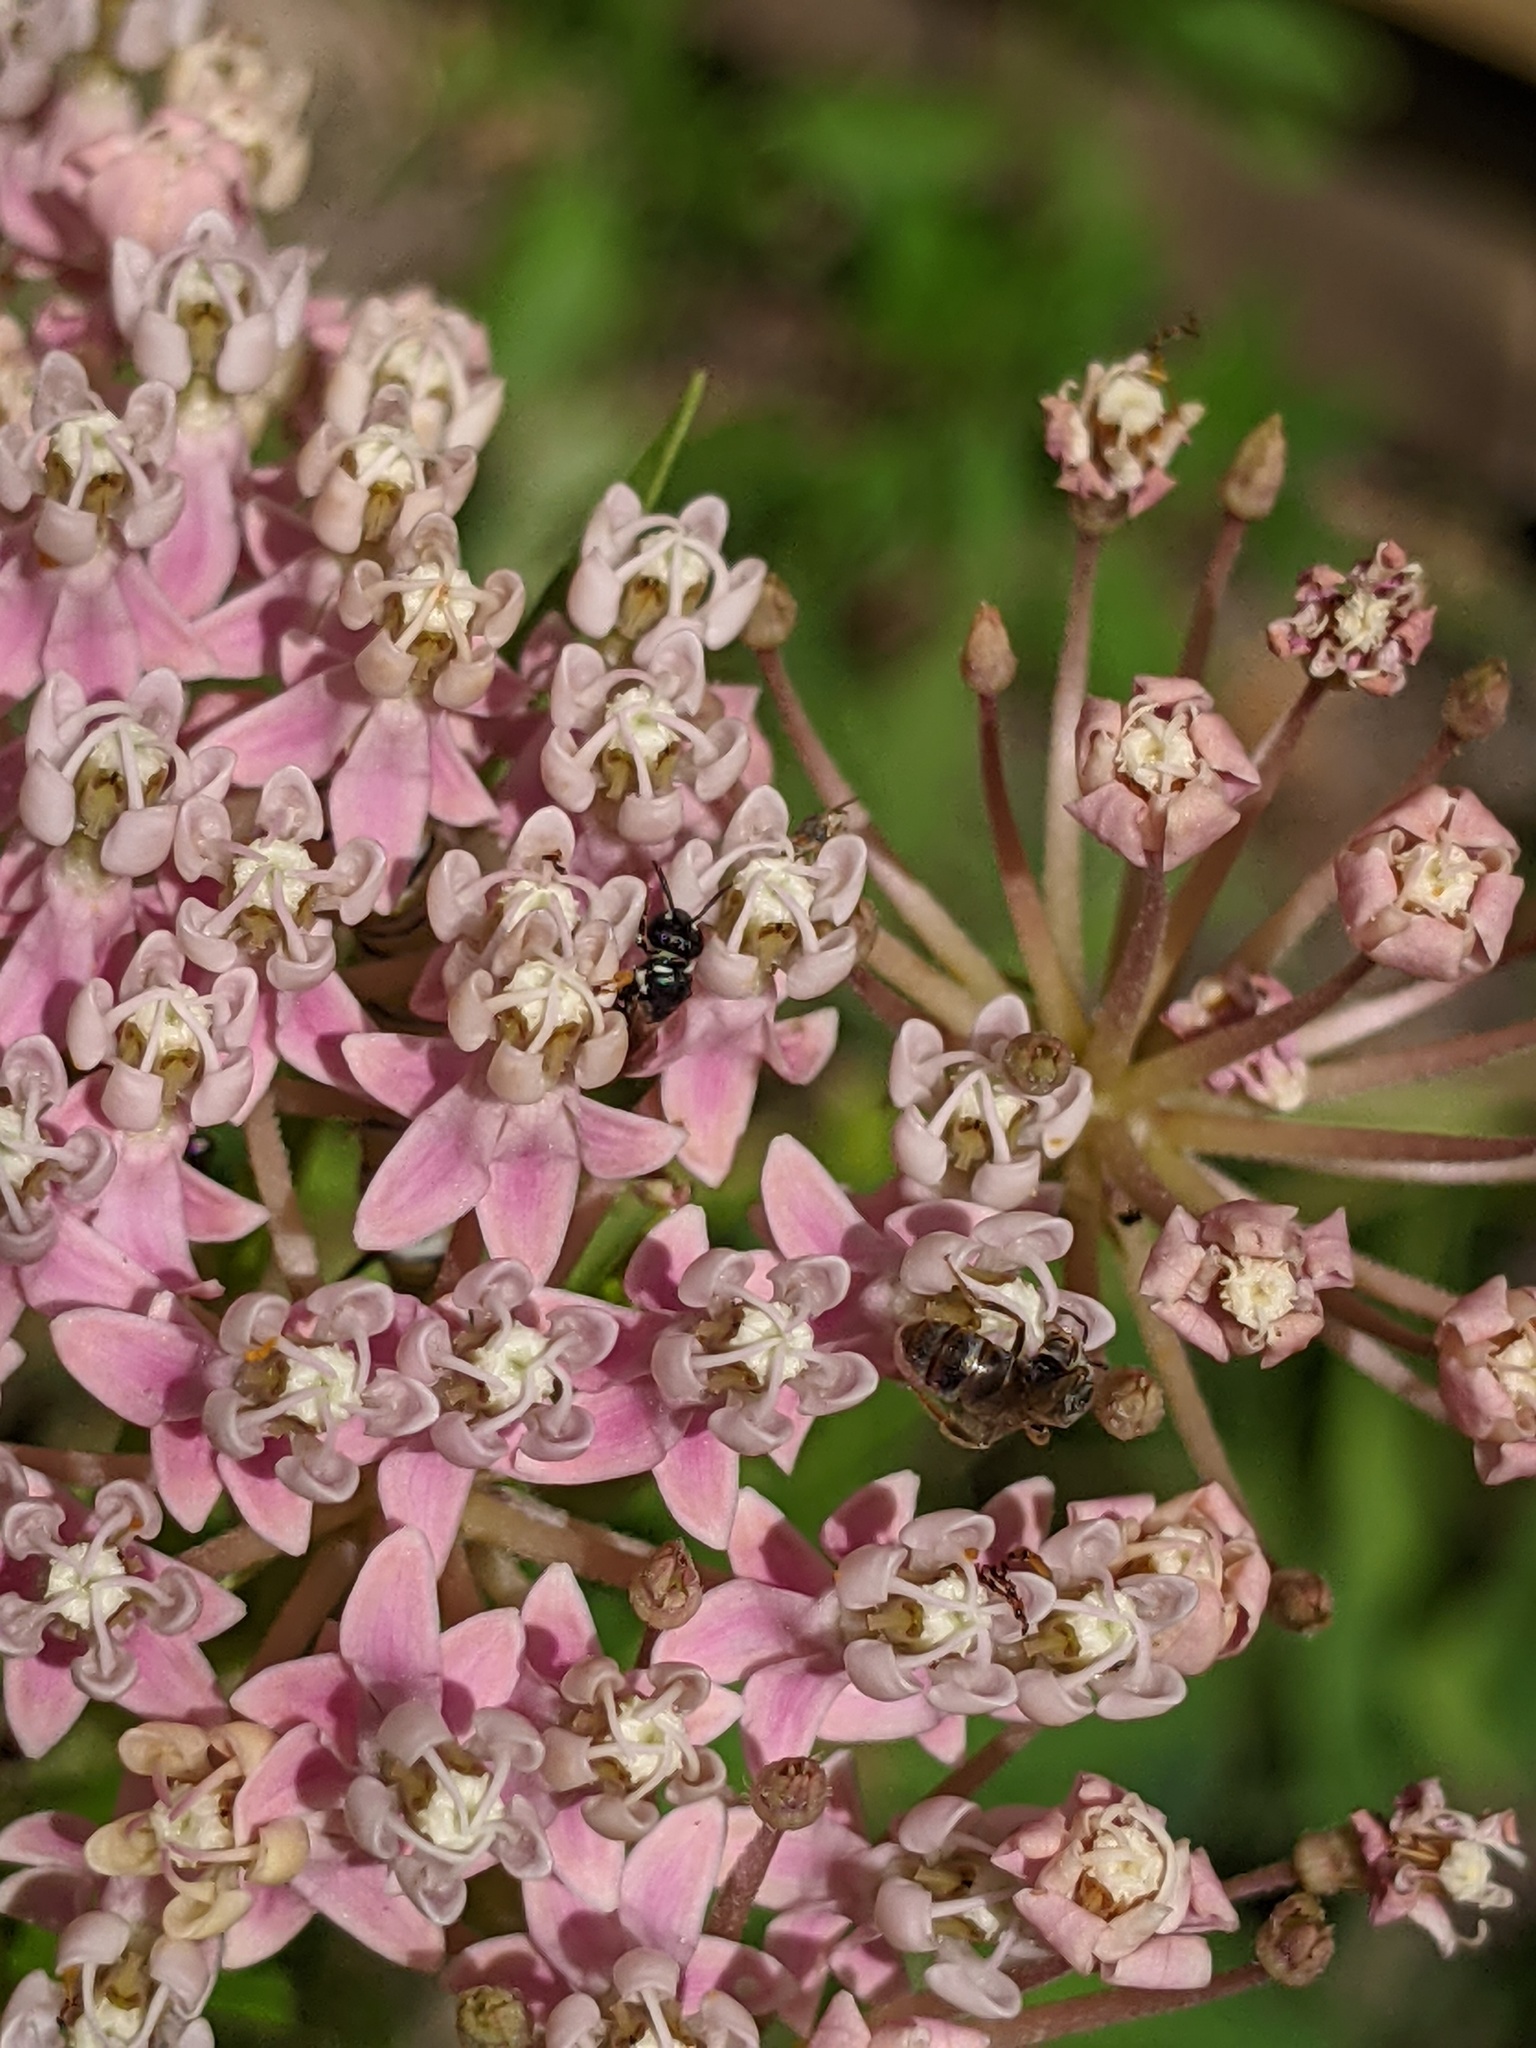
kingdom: Animalia
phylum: Arthropoda
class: Insecta
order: Hymenoptera
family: Colletidae
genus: Hylaeus
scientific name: Hylaeus leptocephalus
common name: Slender-faced masked bee
